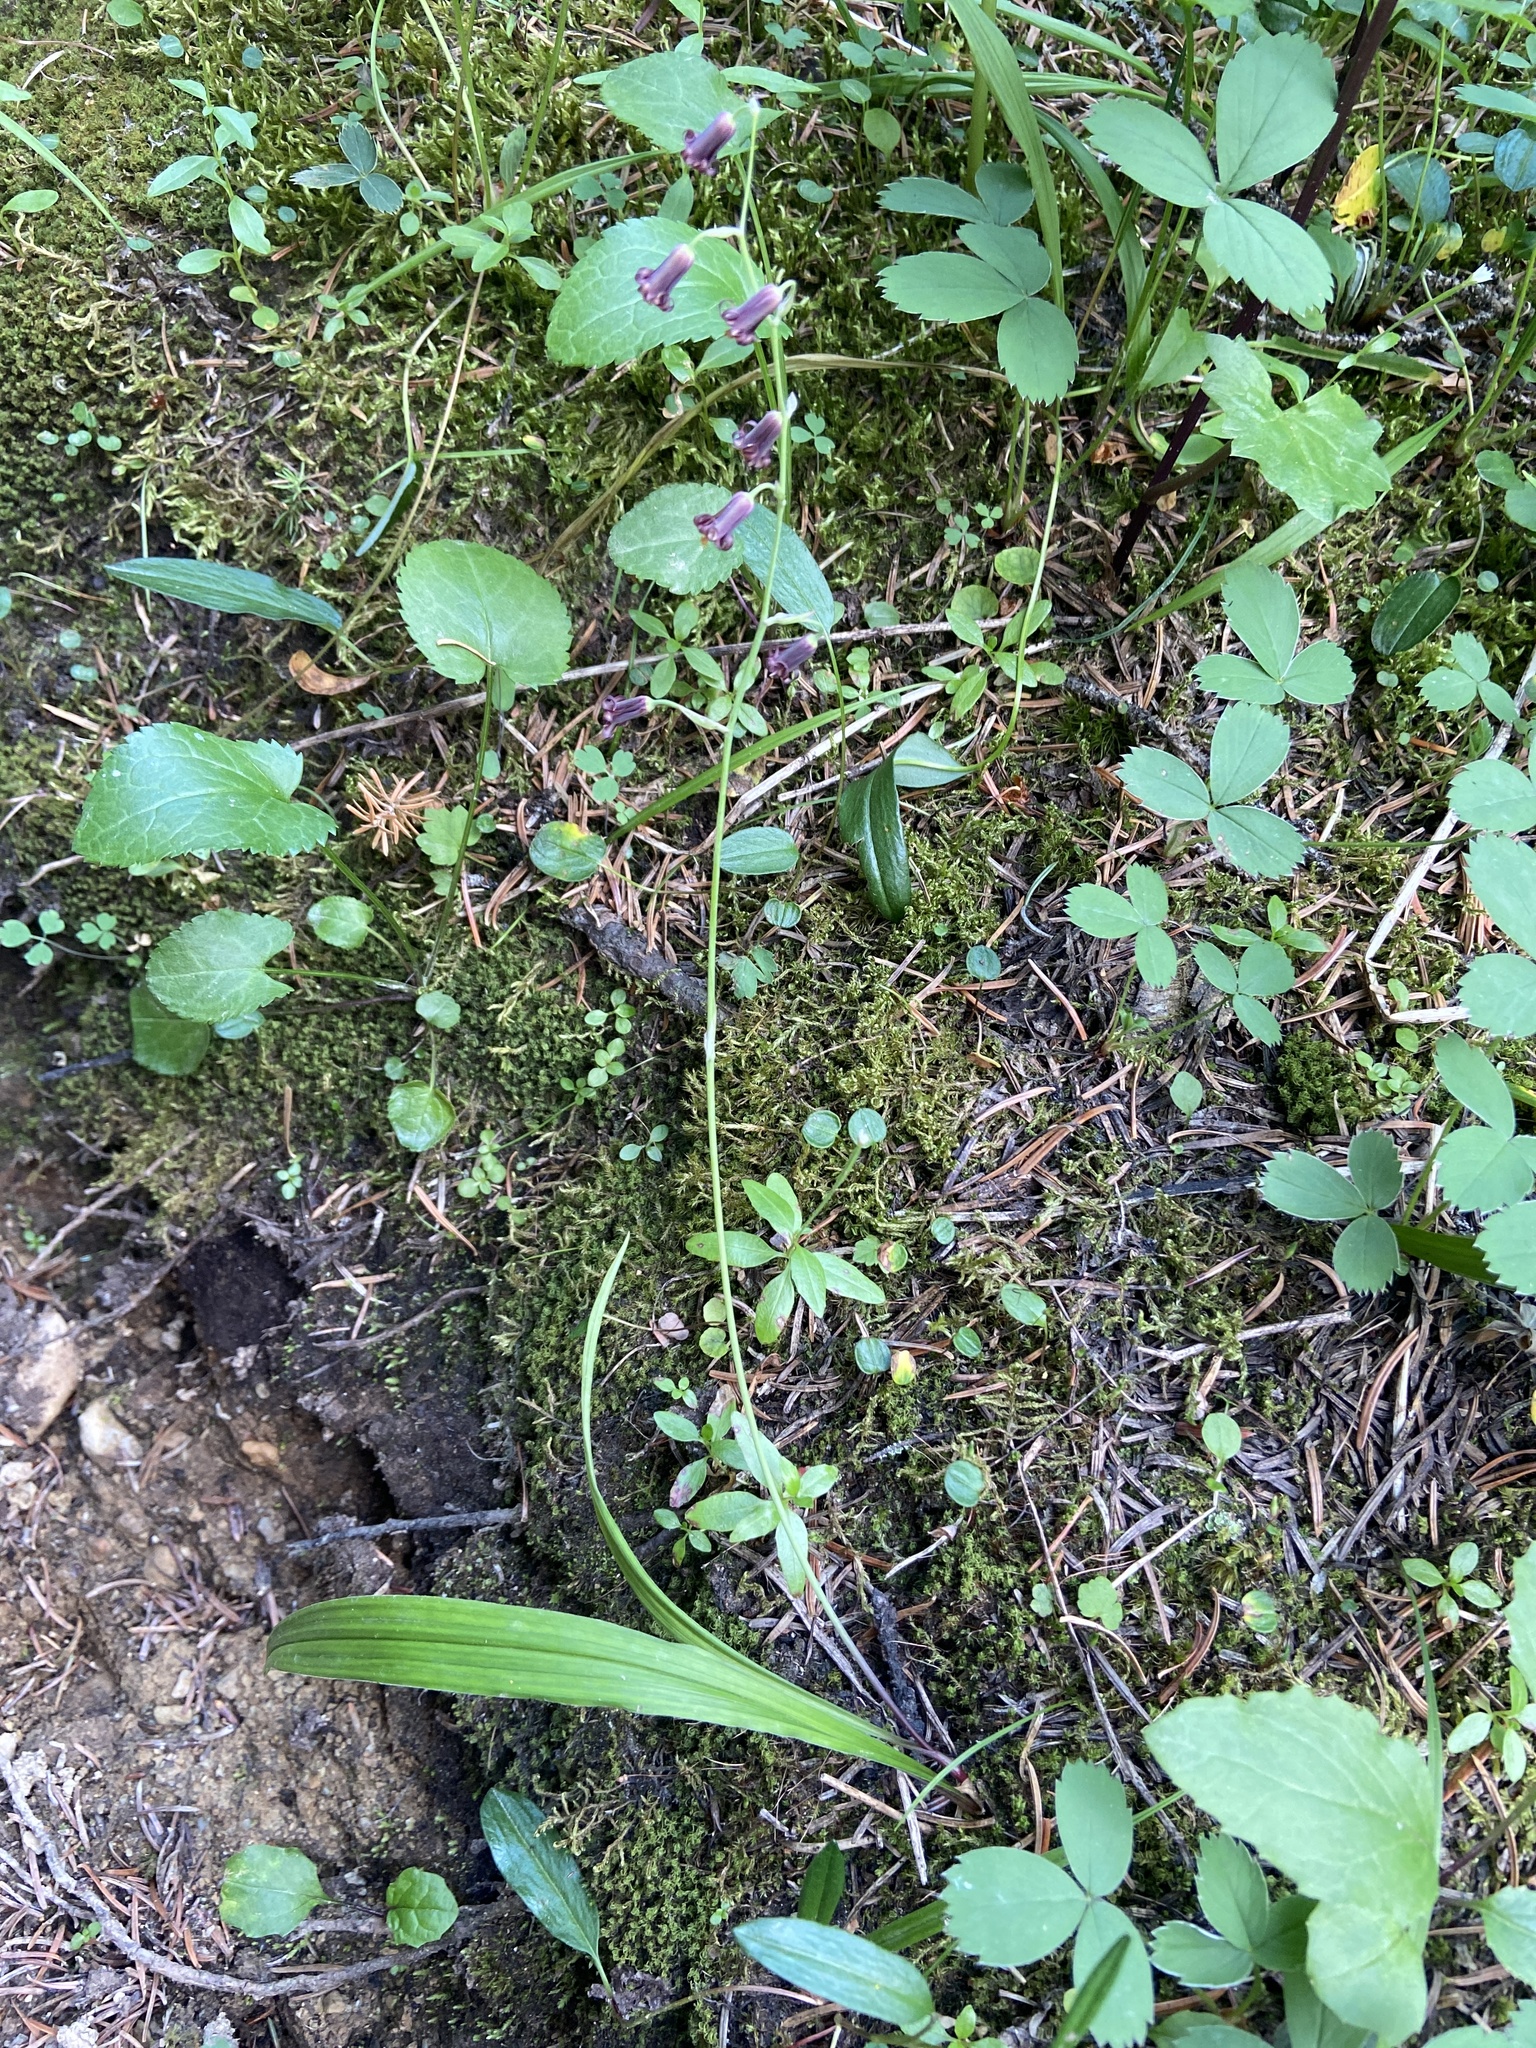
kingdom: Plantae
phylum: Tracheophyta
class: Liliopsida
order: Liliales
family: Melanthiaceae
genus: Anticlea
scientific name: Anticlea occidentalis
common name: Bronze-bells
